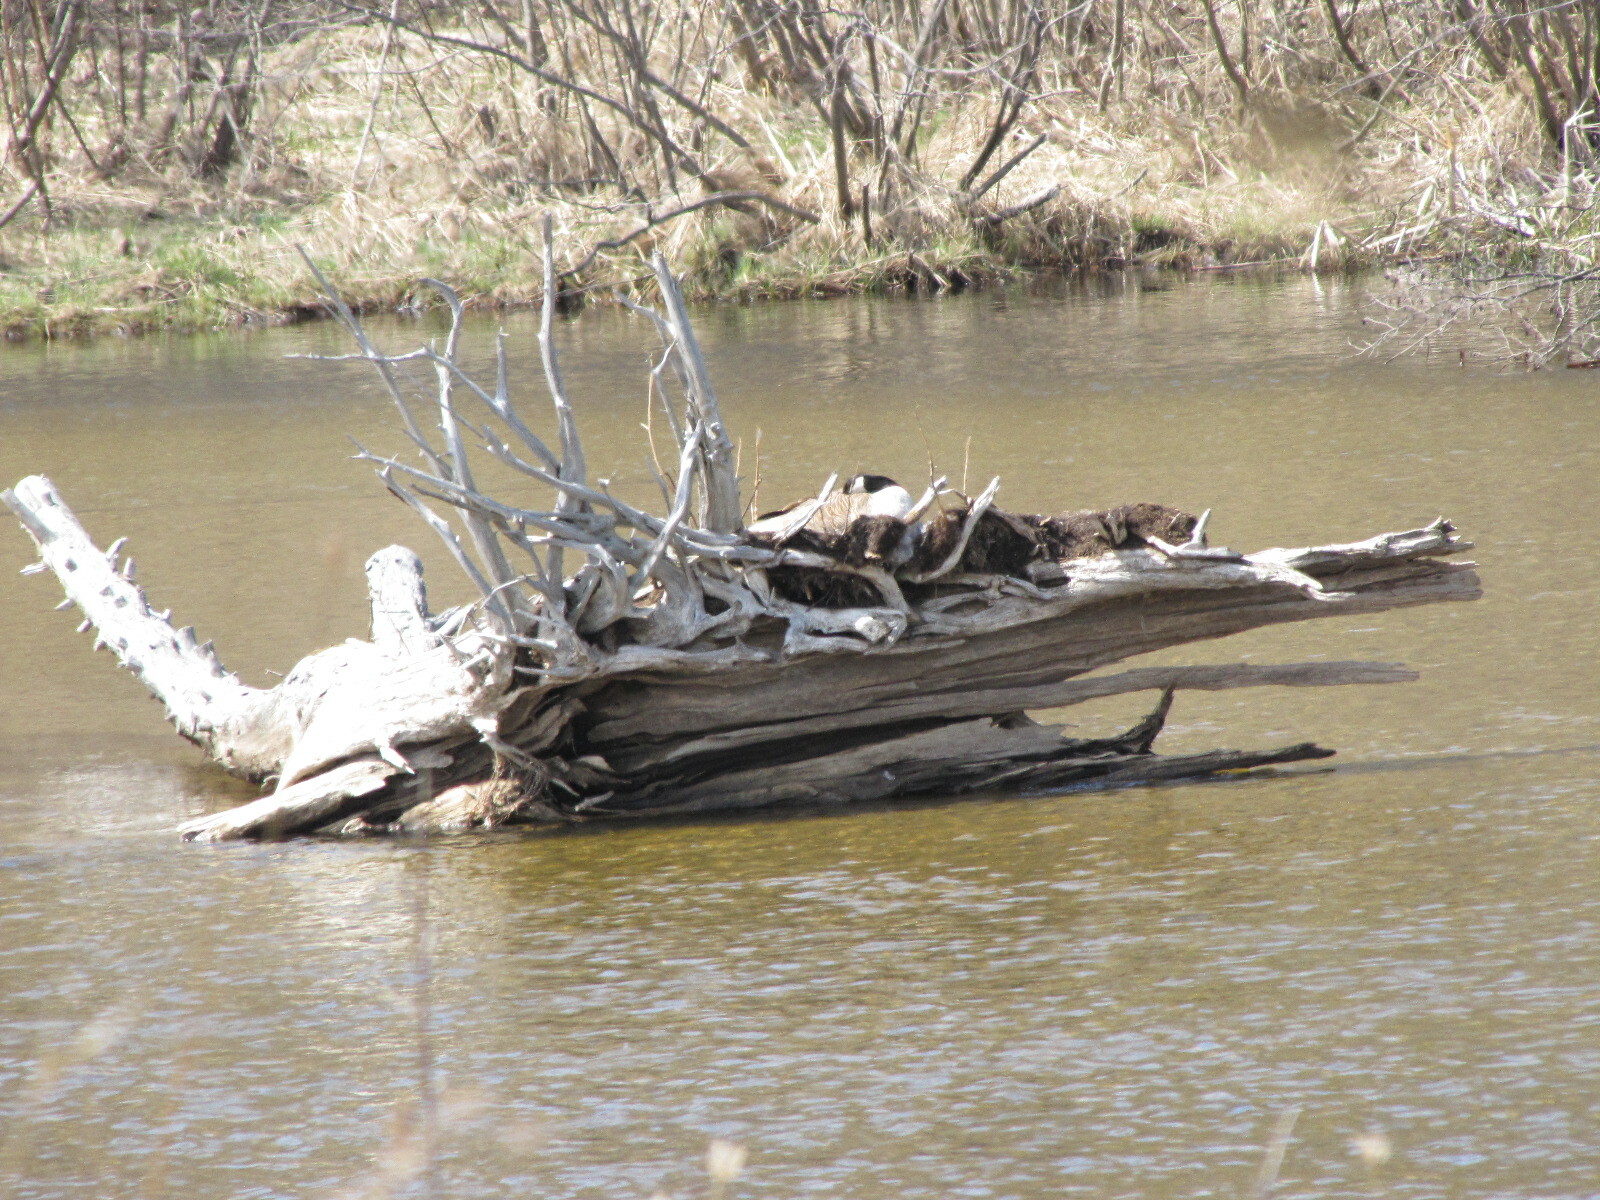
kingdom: Animalia
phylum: Chordata
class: Aves
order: Anseriformes
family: Anatidae
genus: Branta
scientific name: Branta canadensis
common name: Canada goose
